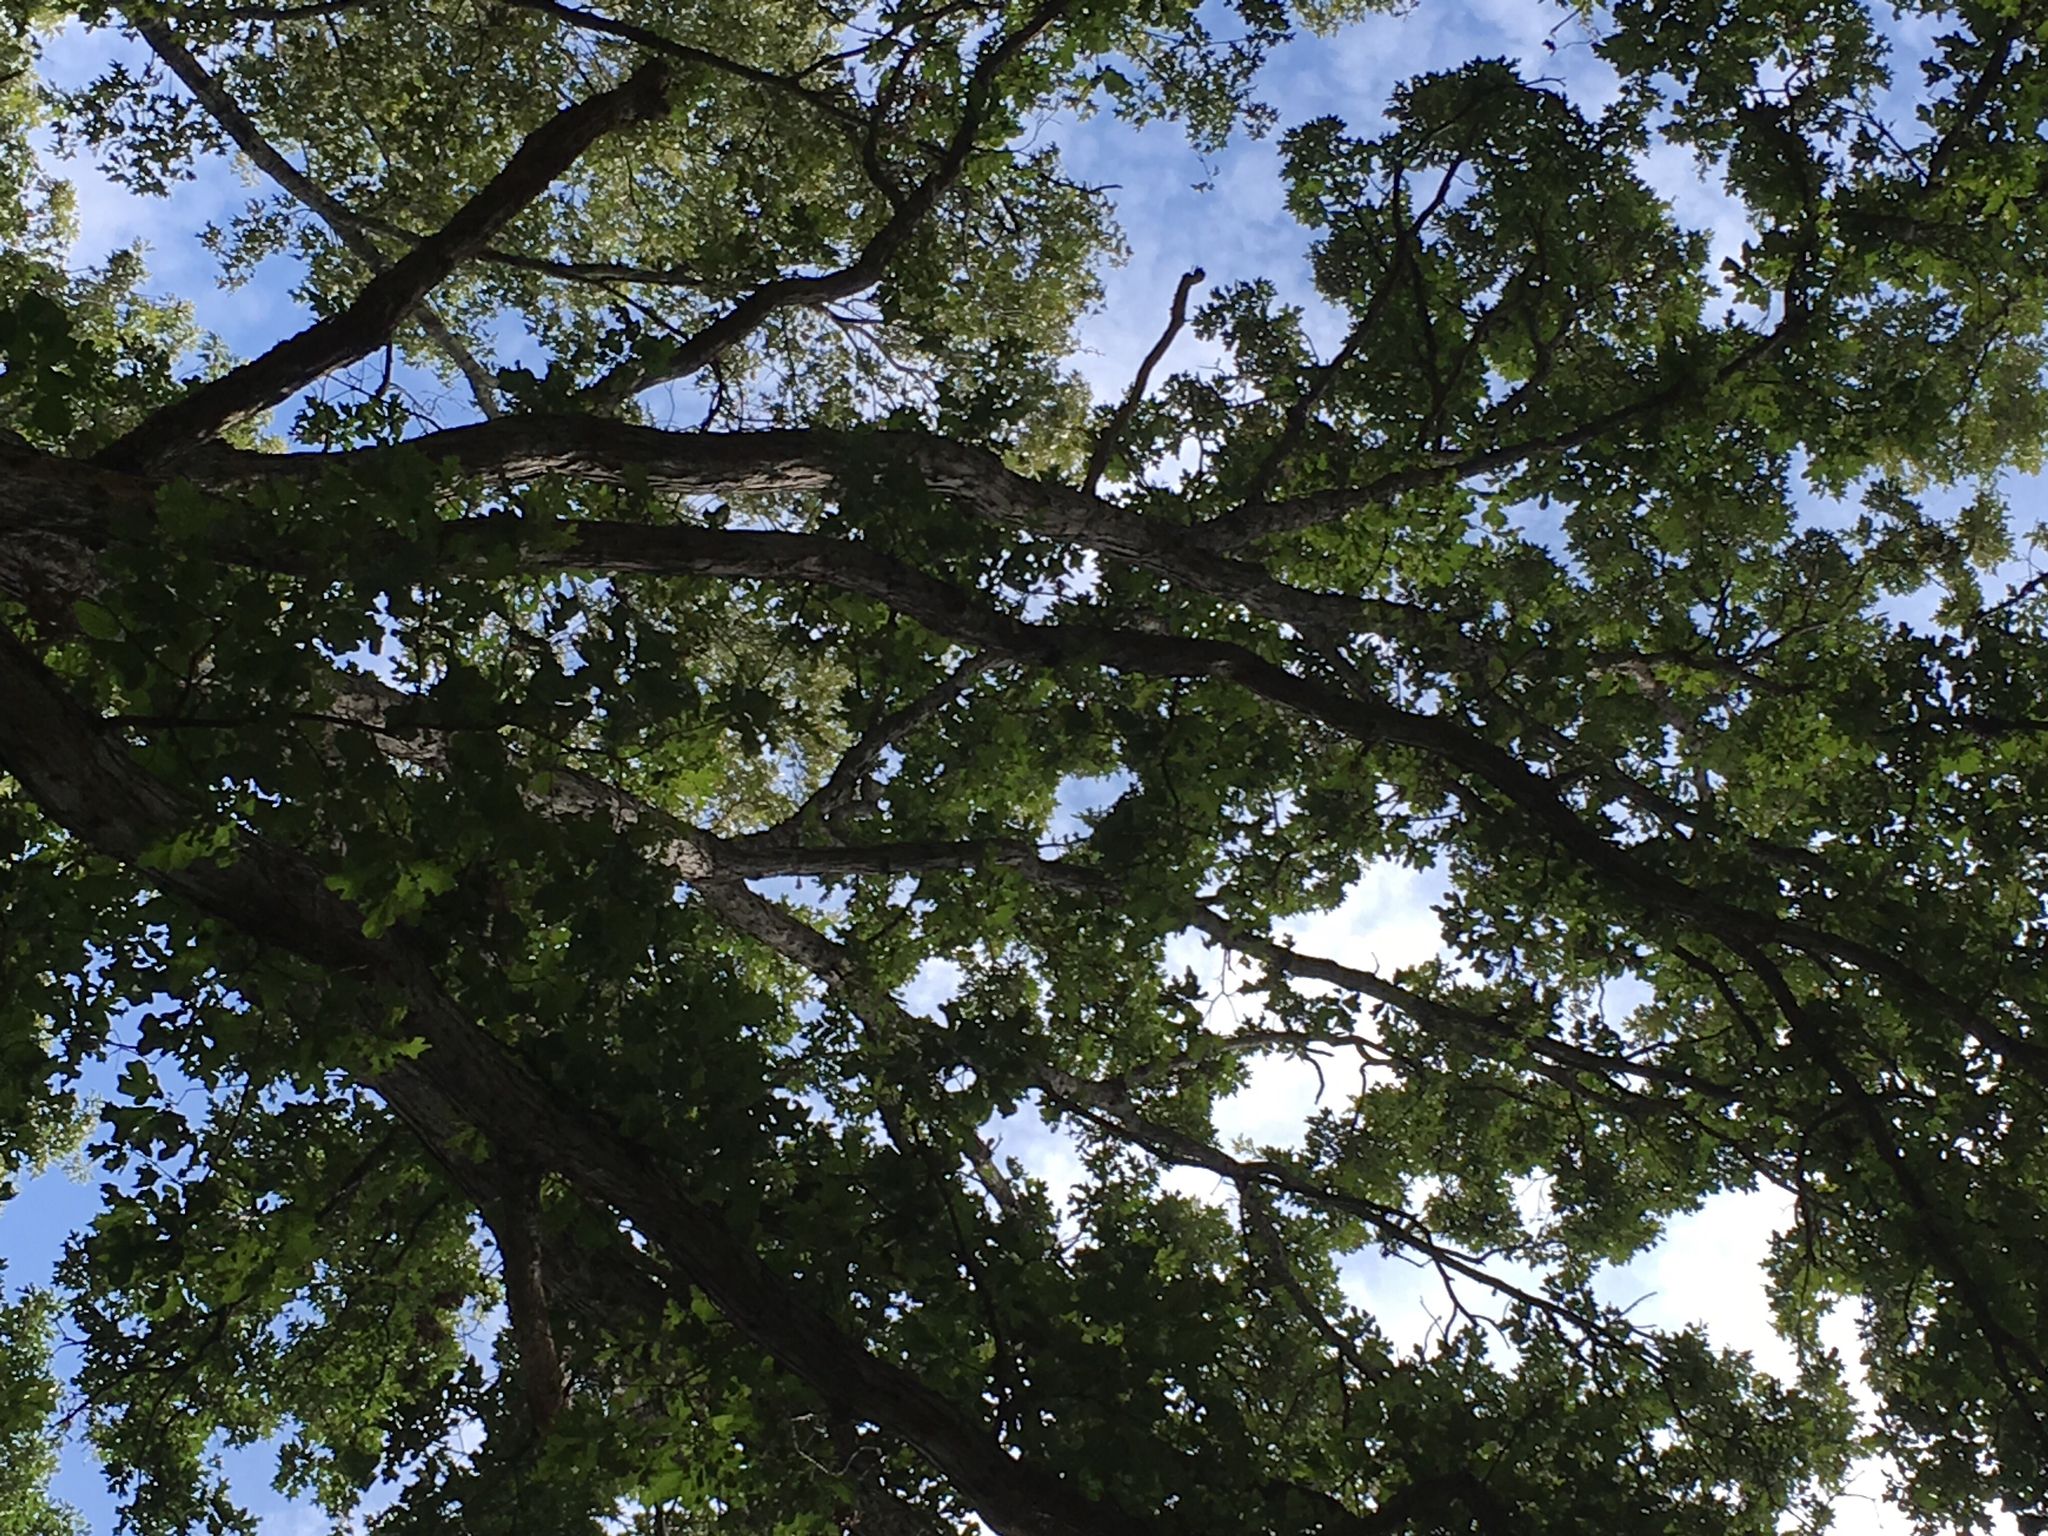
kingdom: Plantae
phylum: Tracheophyta
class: Magnoliopsida
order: Fagales
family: Fagaceae
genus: Quercus
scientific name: Quercus similis
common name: Delta post oak
